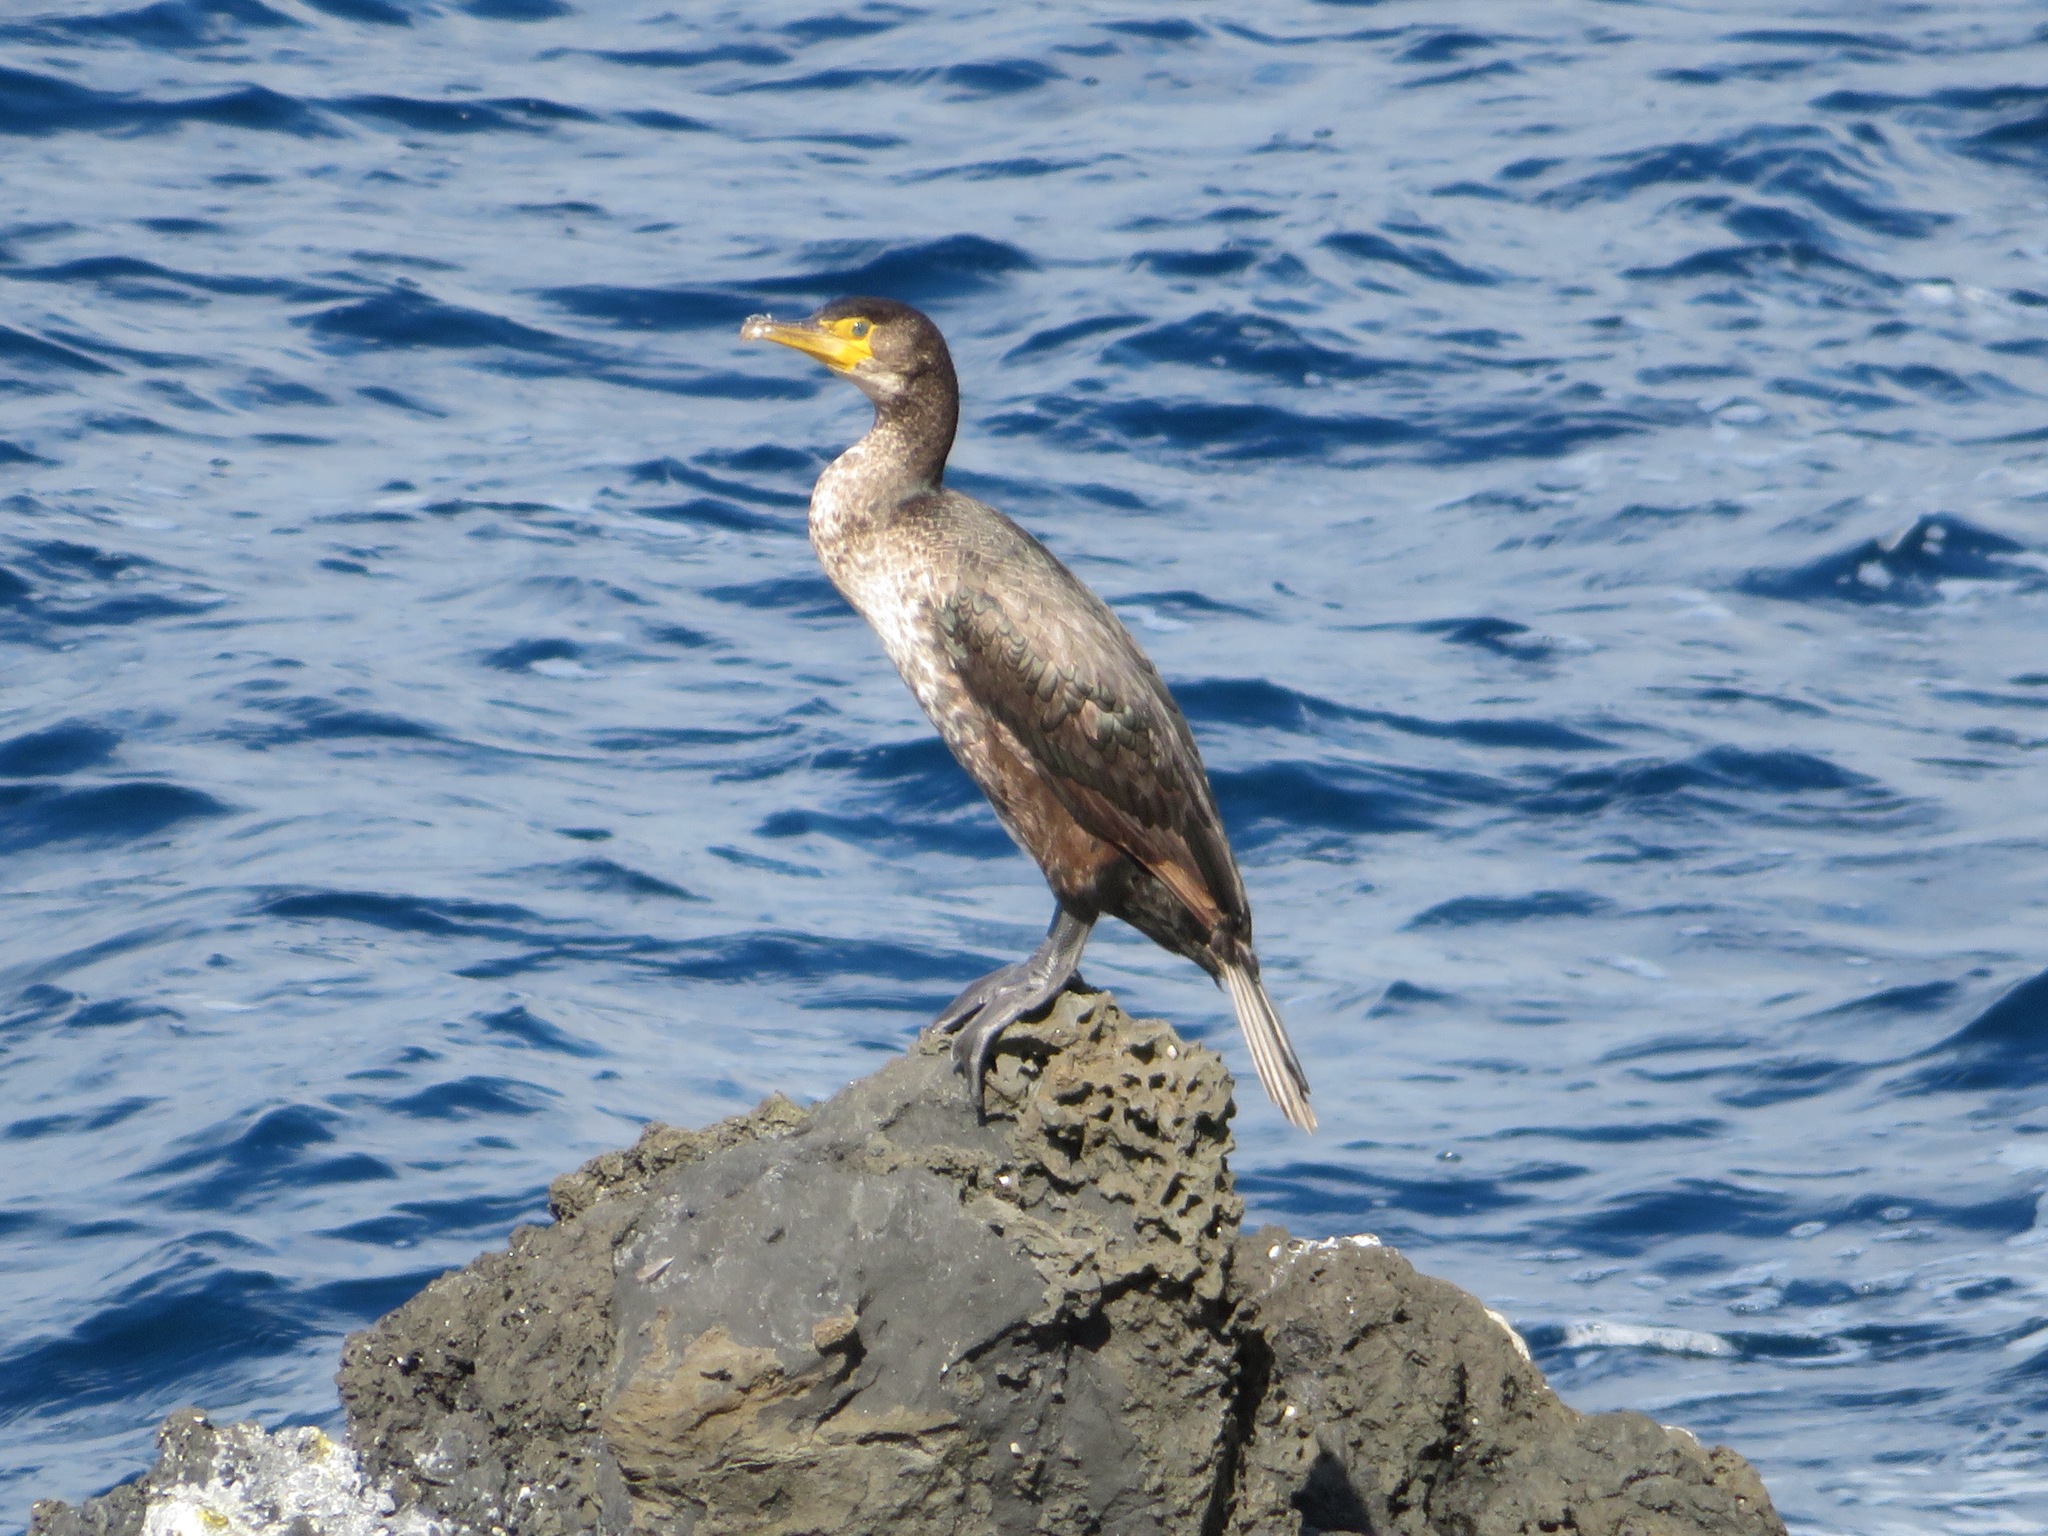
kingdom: Animalia
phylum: Chordata
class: Aves
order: Suliformes
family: Phalacrocoracidae
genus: Phalacrocorax
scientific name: Phalacrocorax capillatus
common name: Japanese cormorant
